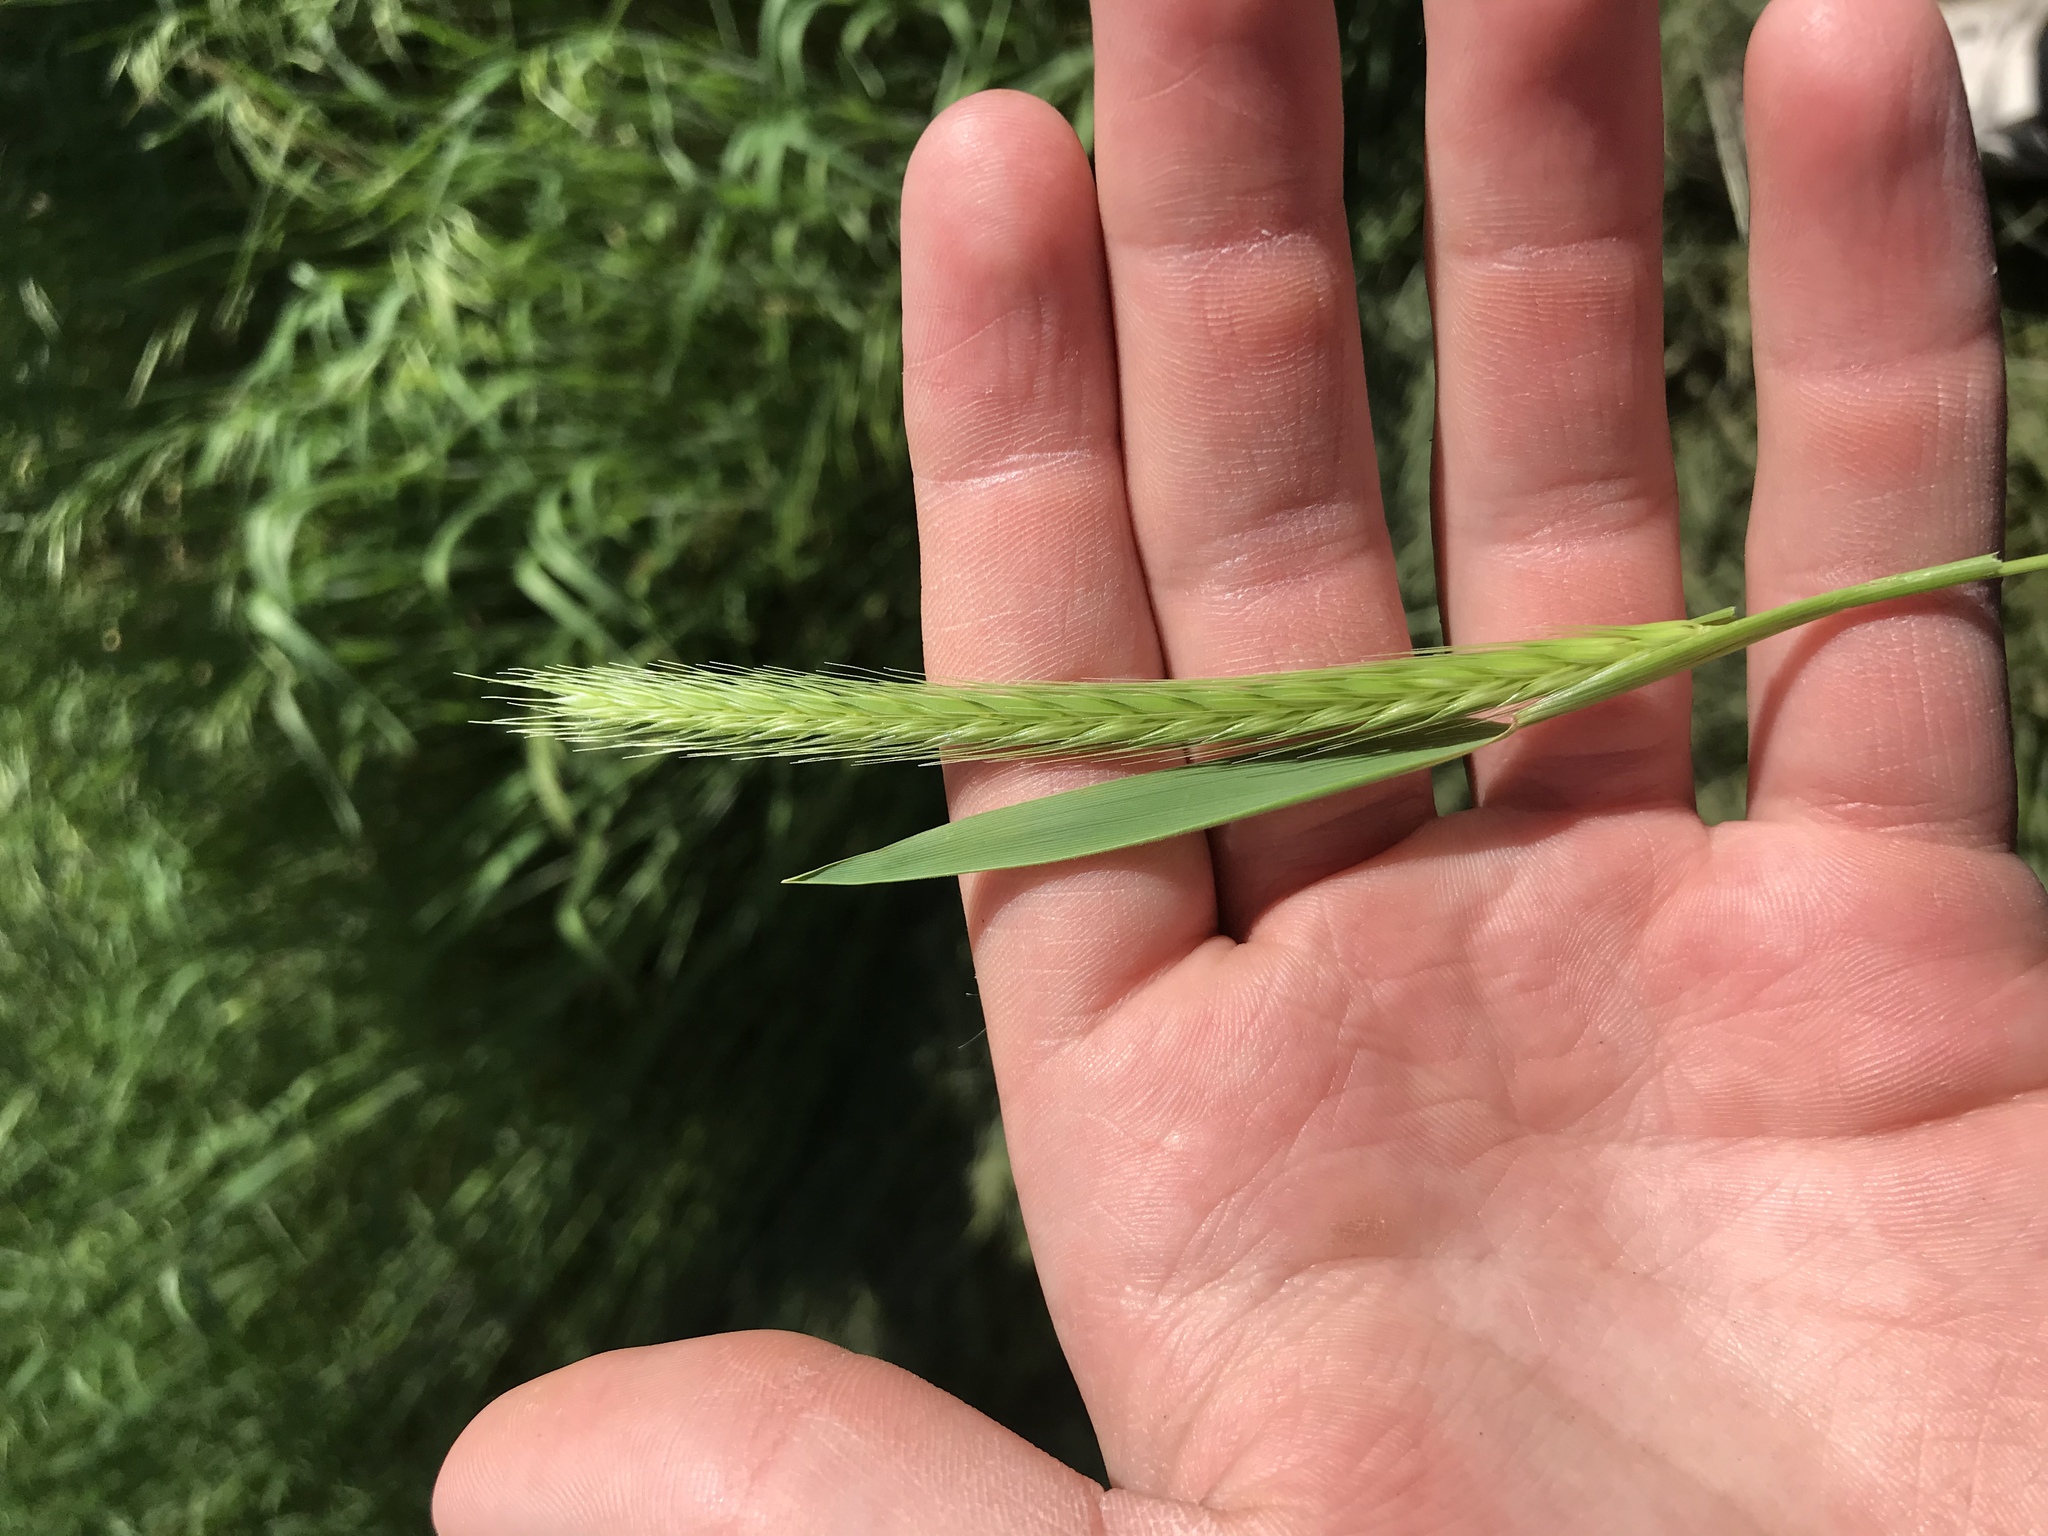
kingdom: Plantae
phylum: Tracheophyta
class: Liliopsida
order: Poales
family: Poaceae
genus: Hordeum
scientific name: Hordeum pusillum
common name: Little barley
